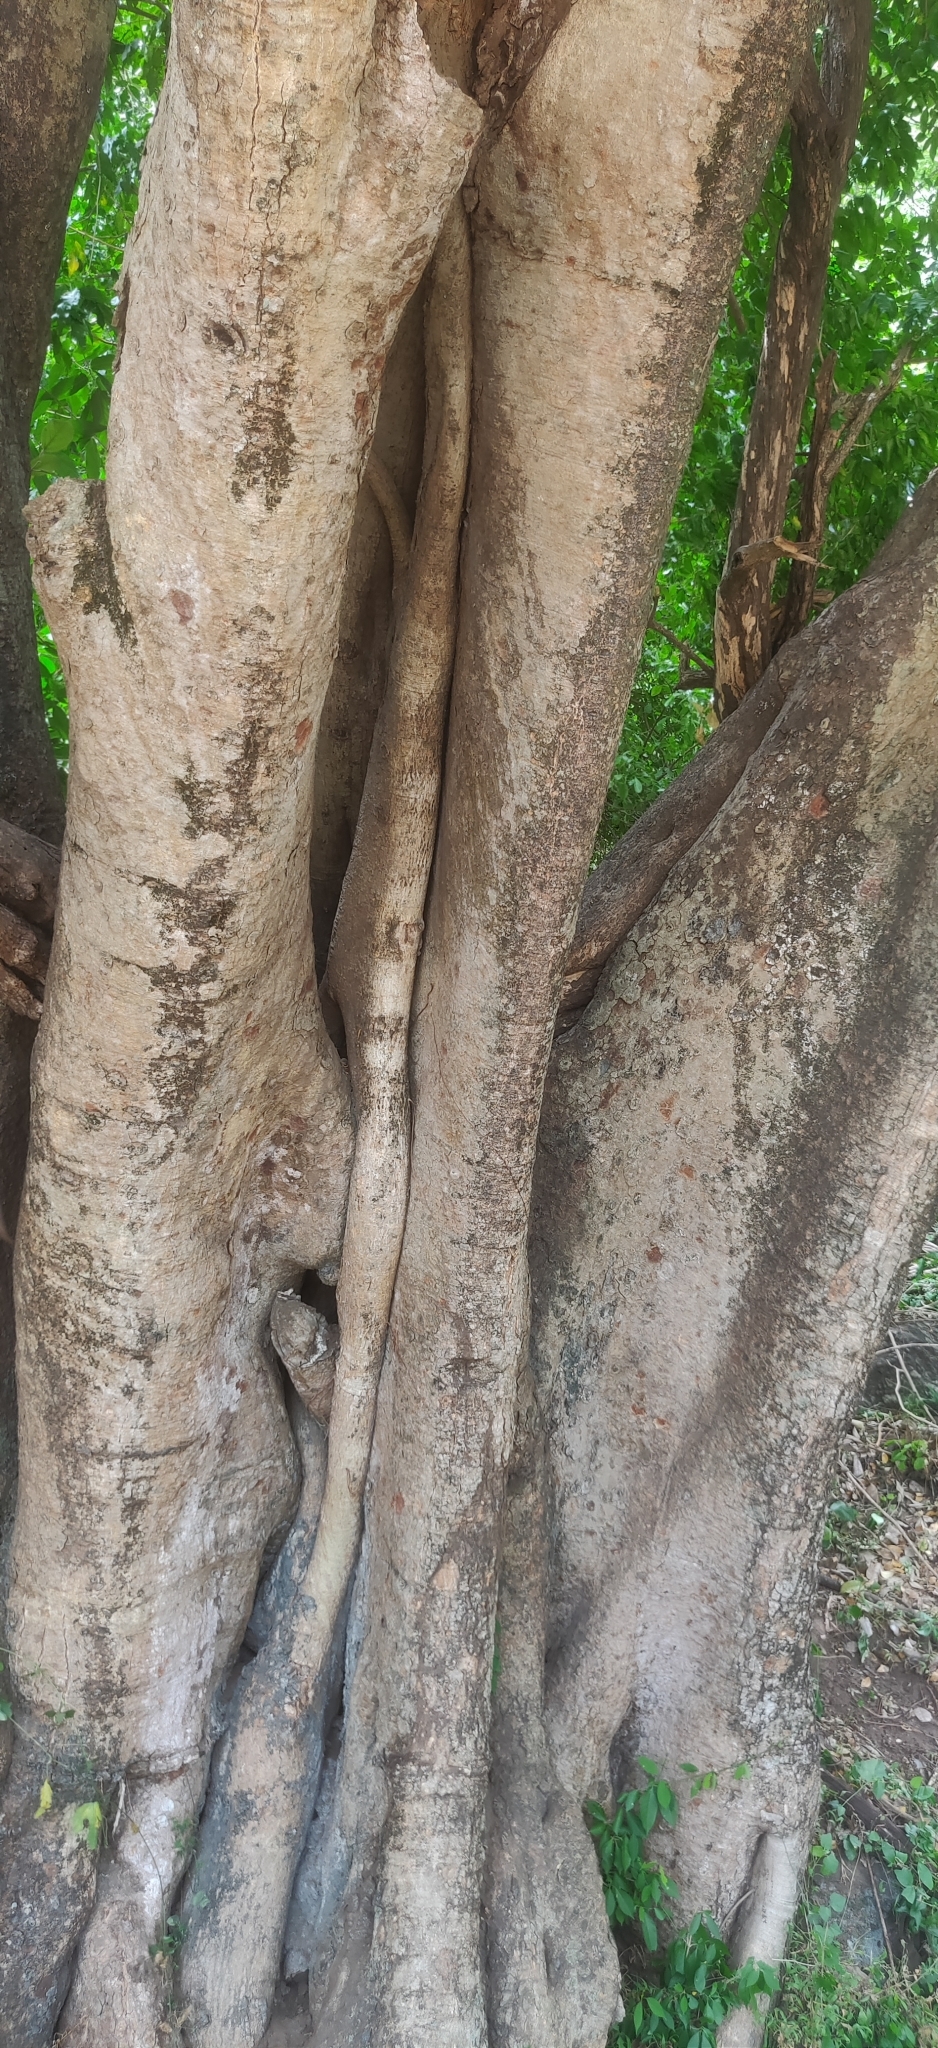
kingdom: Plantae
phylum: Tracheophyta
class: Magnoliopsida
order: Rosales
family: Moraceae
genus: Ficus
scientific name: Ficus mollis
